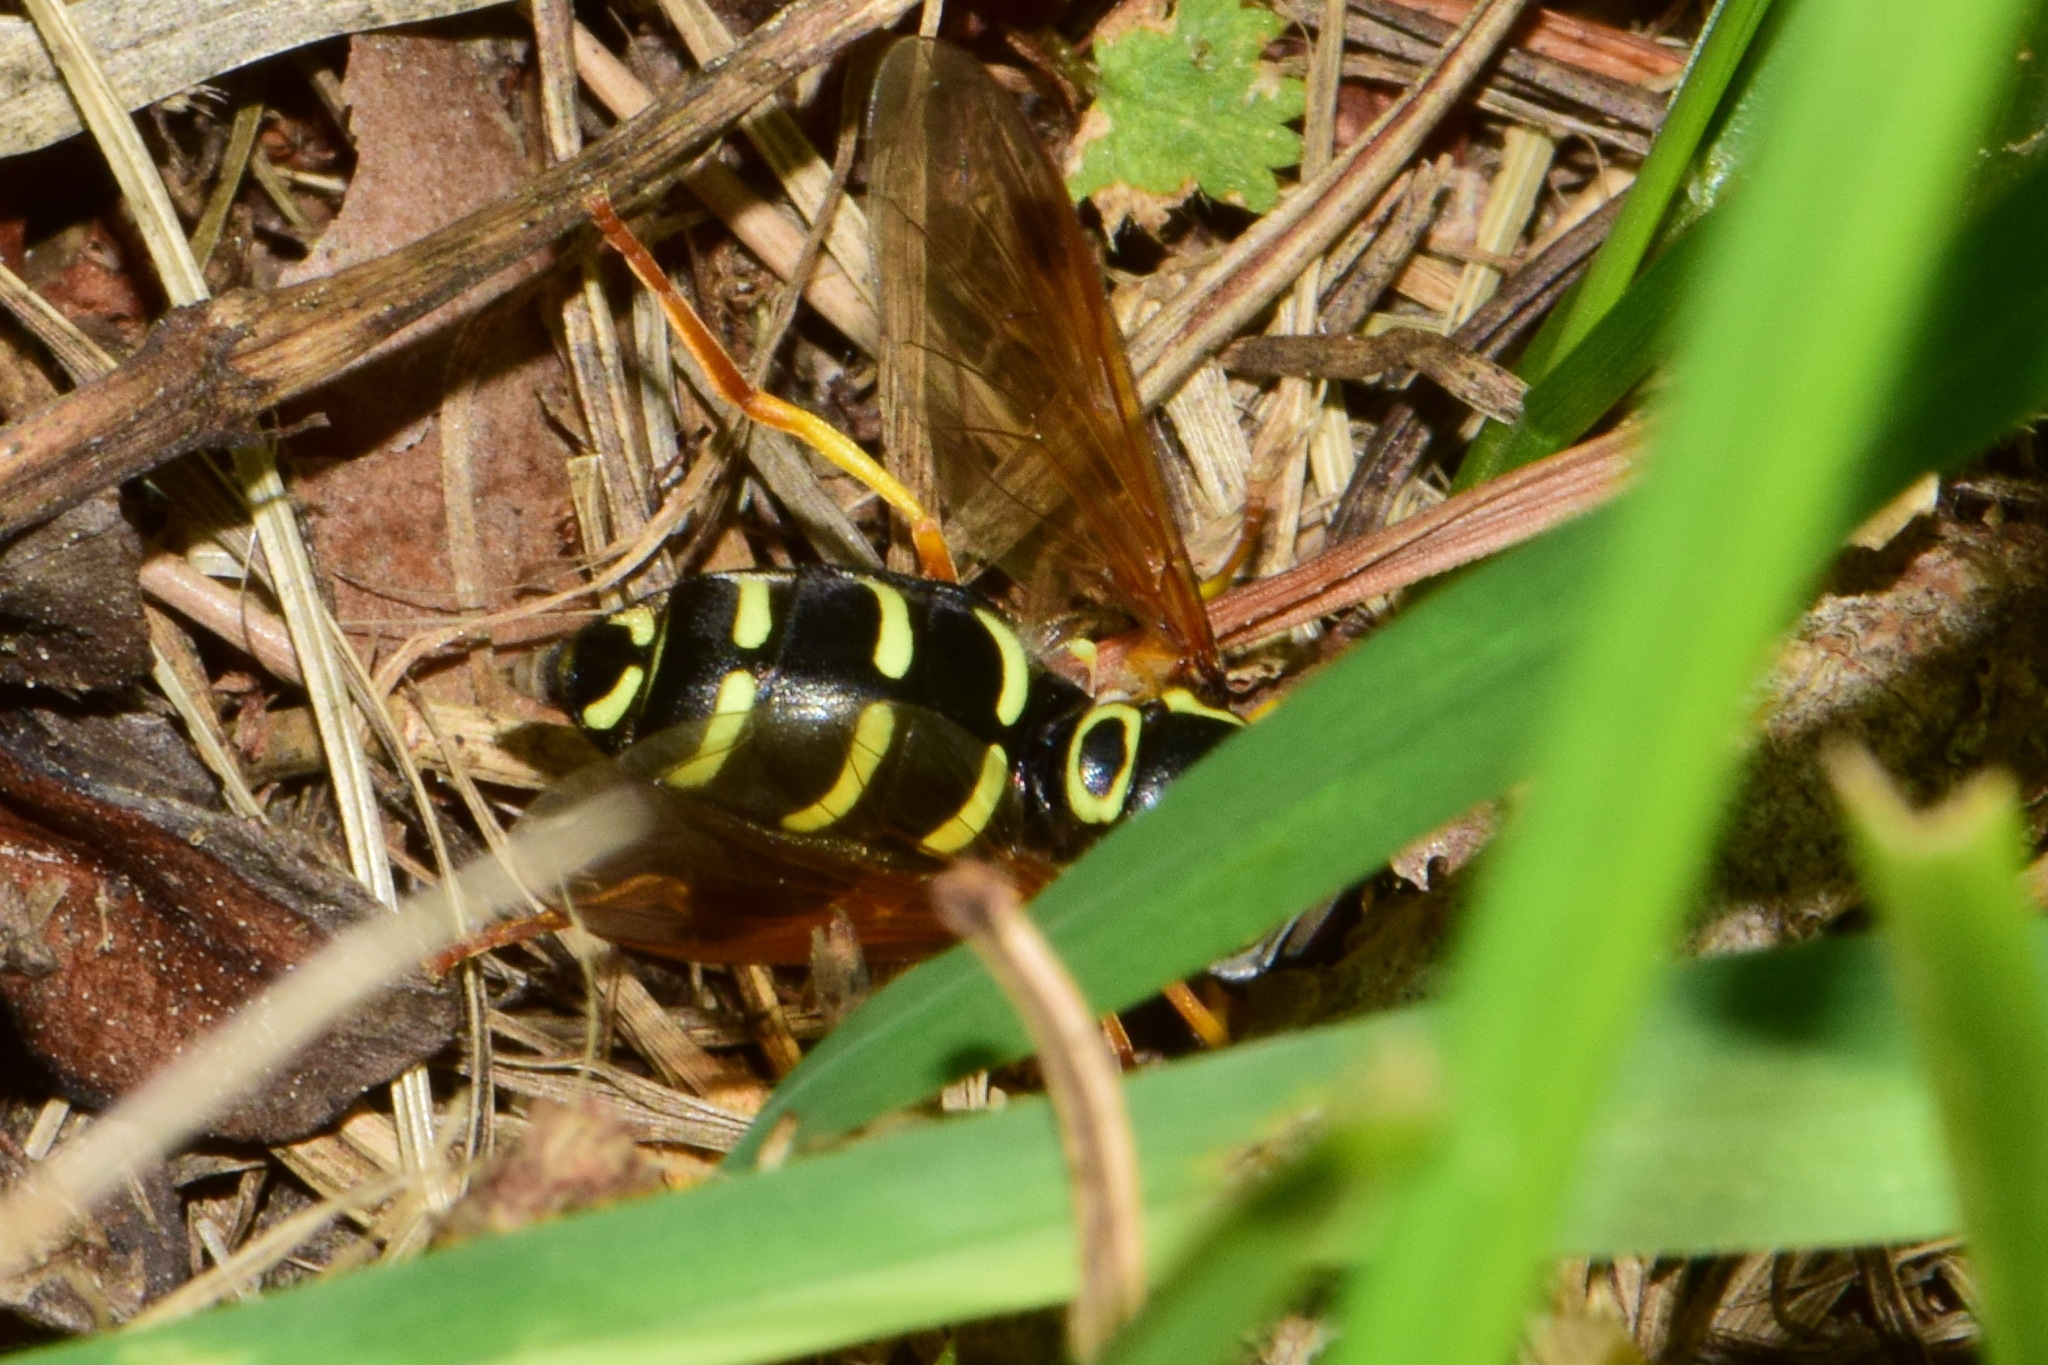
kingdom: Animalia
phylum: Arthropoda
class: Insecta
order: Diptera
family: Syrphidae
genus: Chrysotoxum
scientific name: Chrysotoxum festivum
